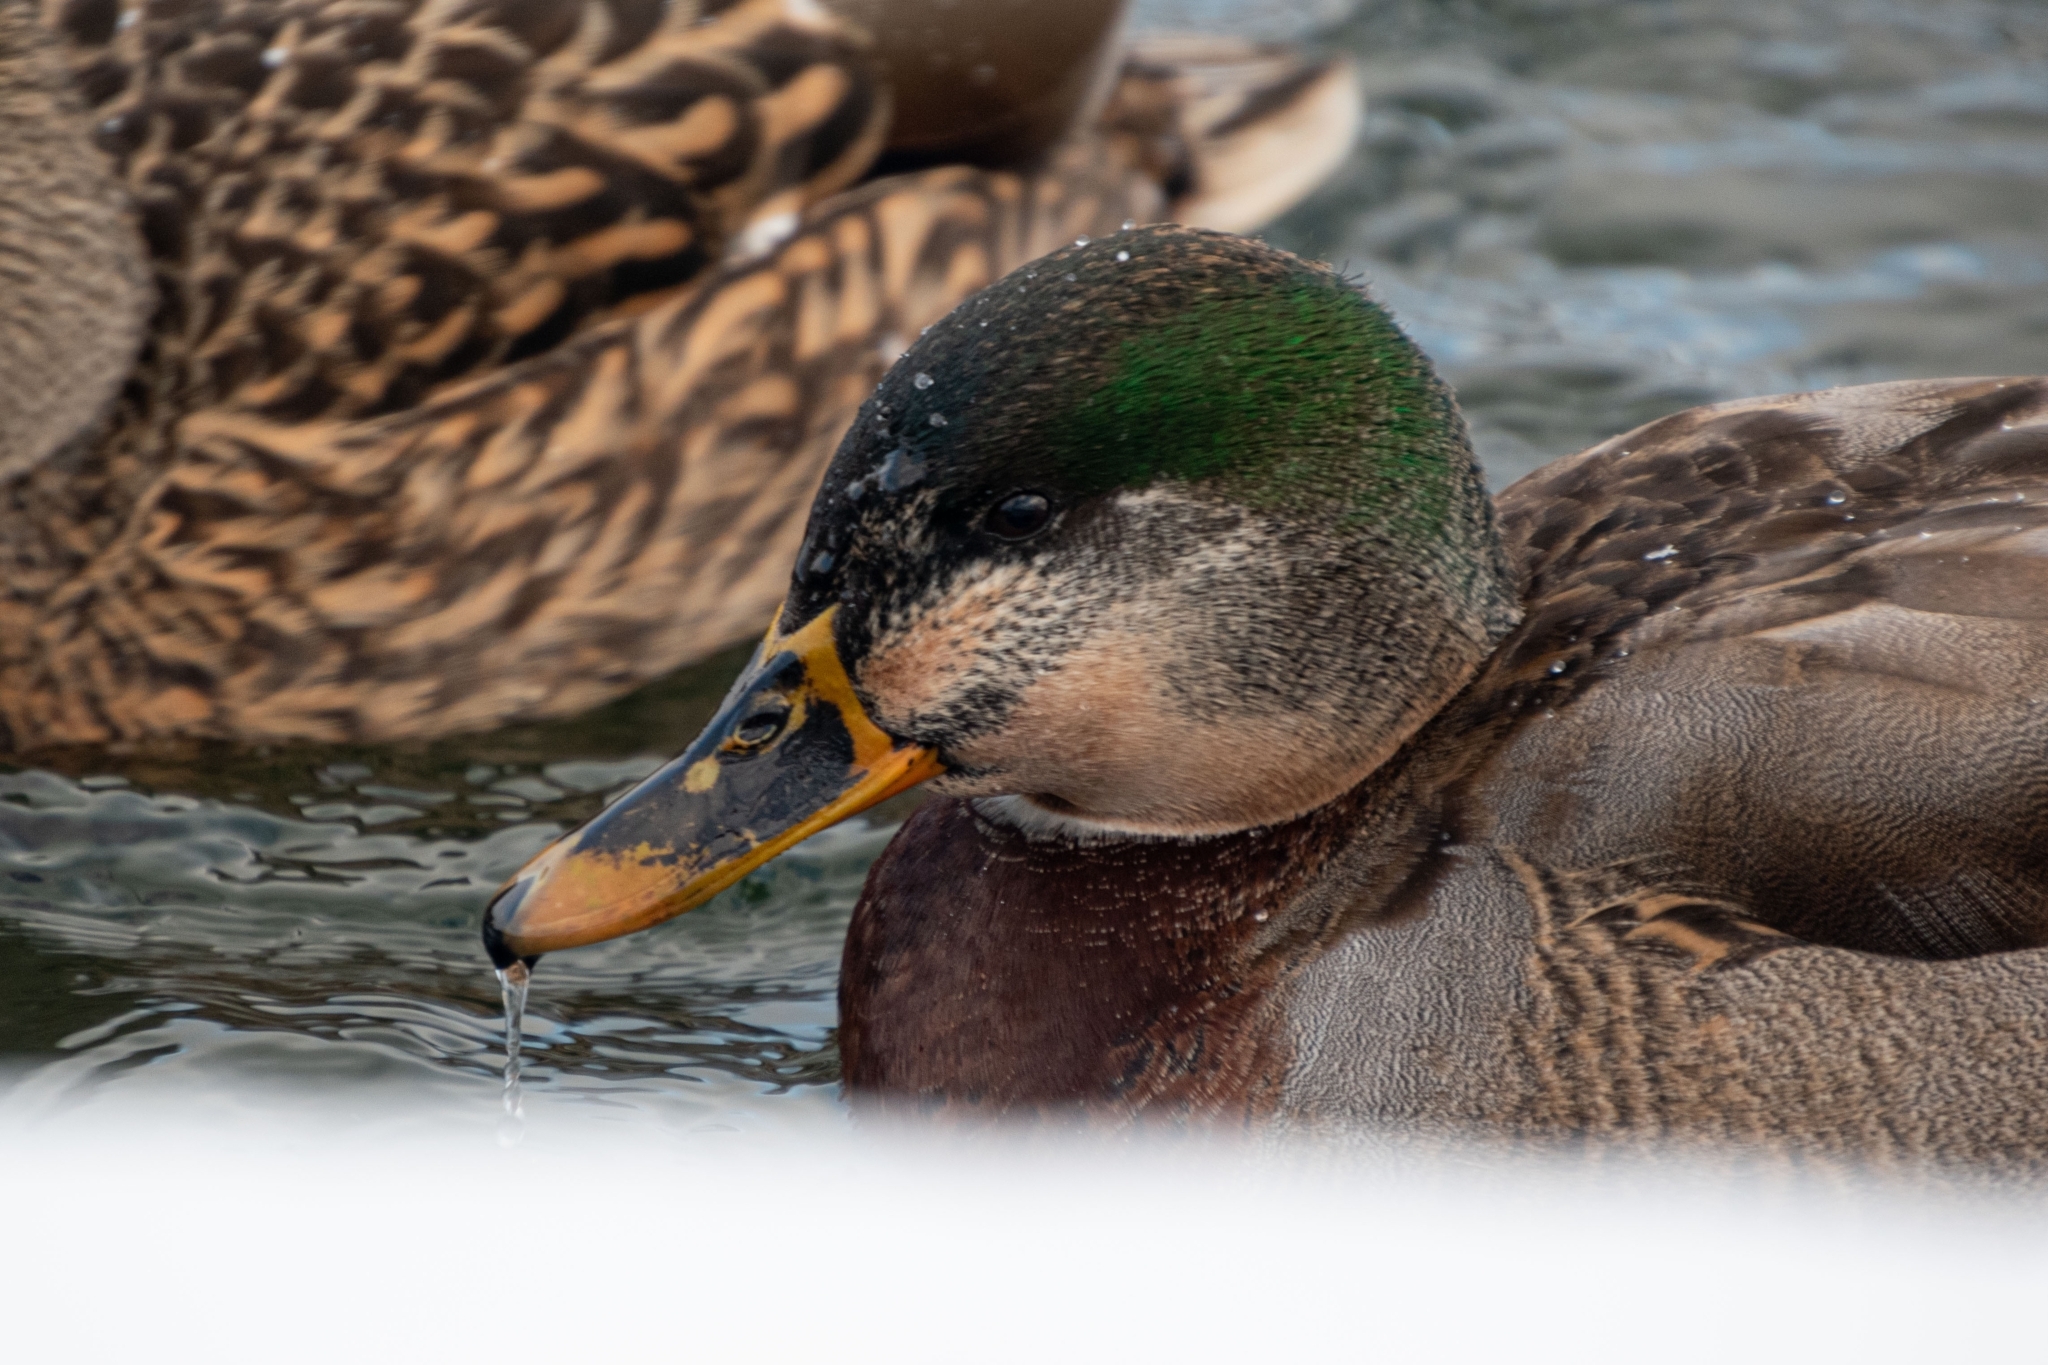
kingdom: Animalia
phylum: Chordata
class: Aves
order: Anseriformes
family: Anatidae
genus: Anas
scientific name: Anas platyrhynchos
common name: Mallard
